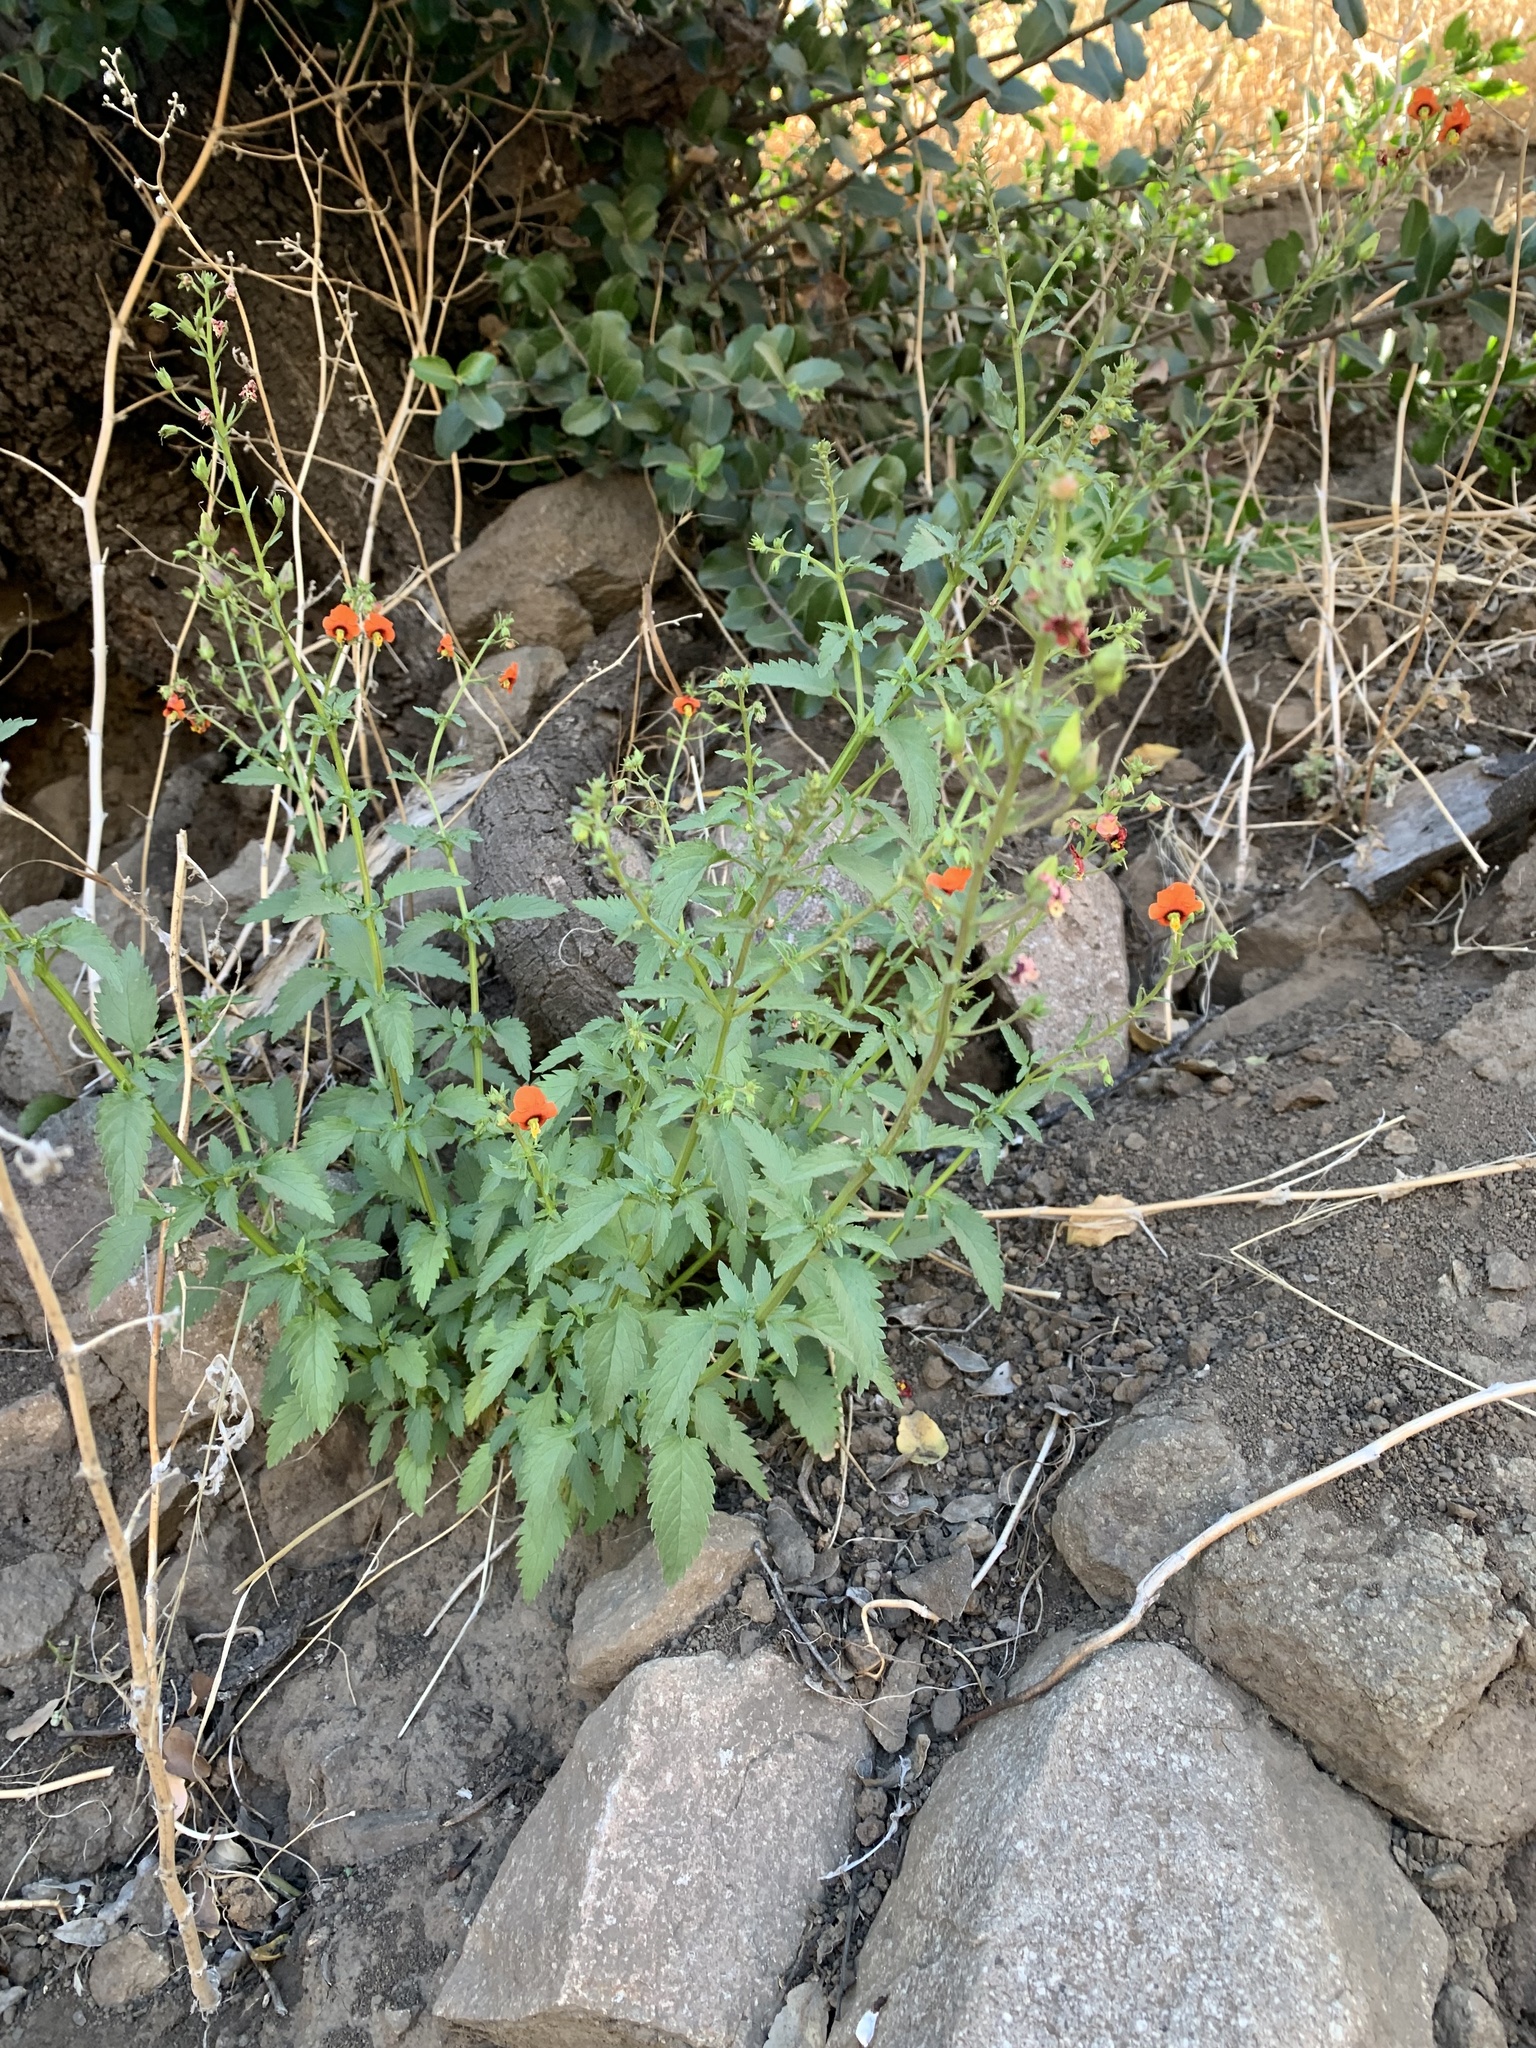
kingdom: Plantae
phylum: Tracheophyta
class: Magnoliopsida
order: Lamiales
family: Scrophulariaceae
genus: Alonsoa
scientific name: Alonsoa meridionalis
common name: Maskflower
